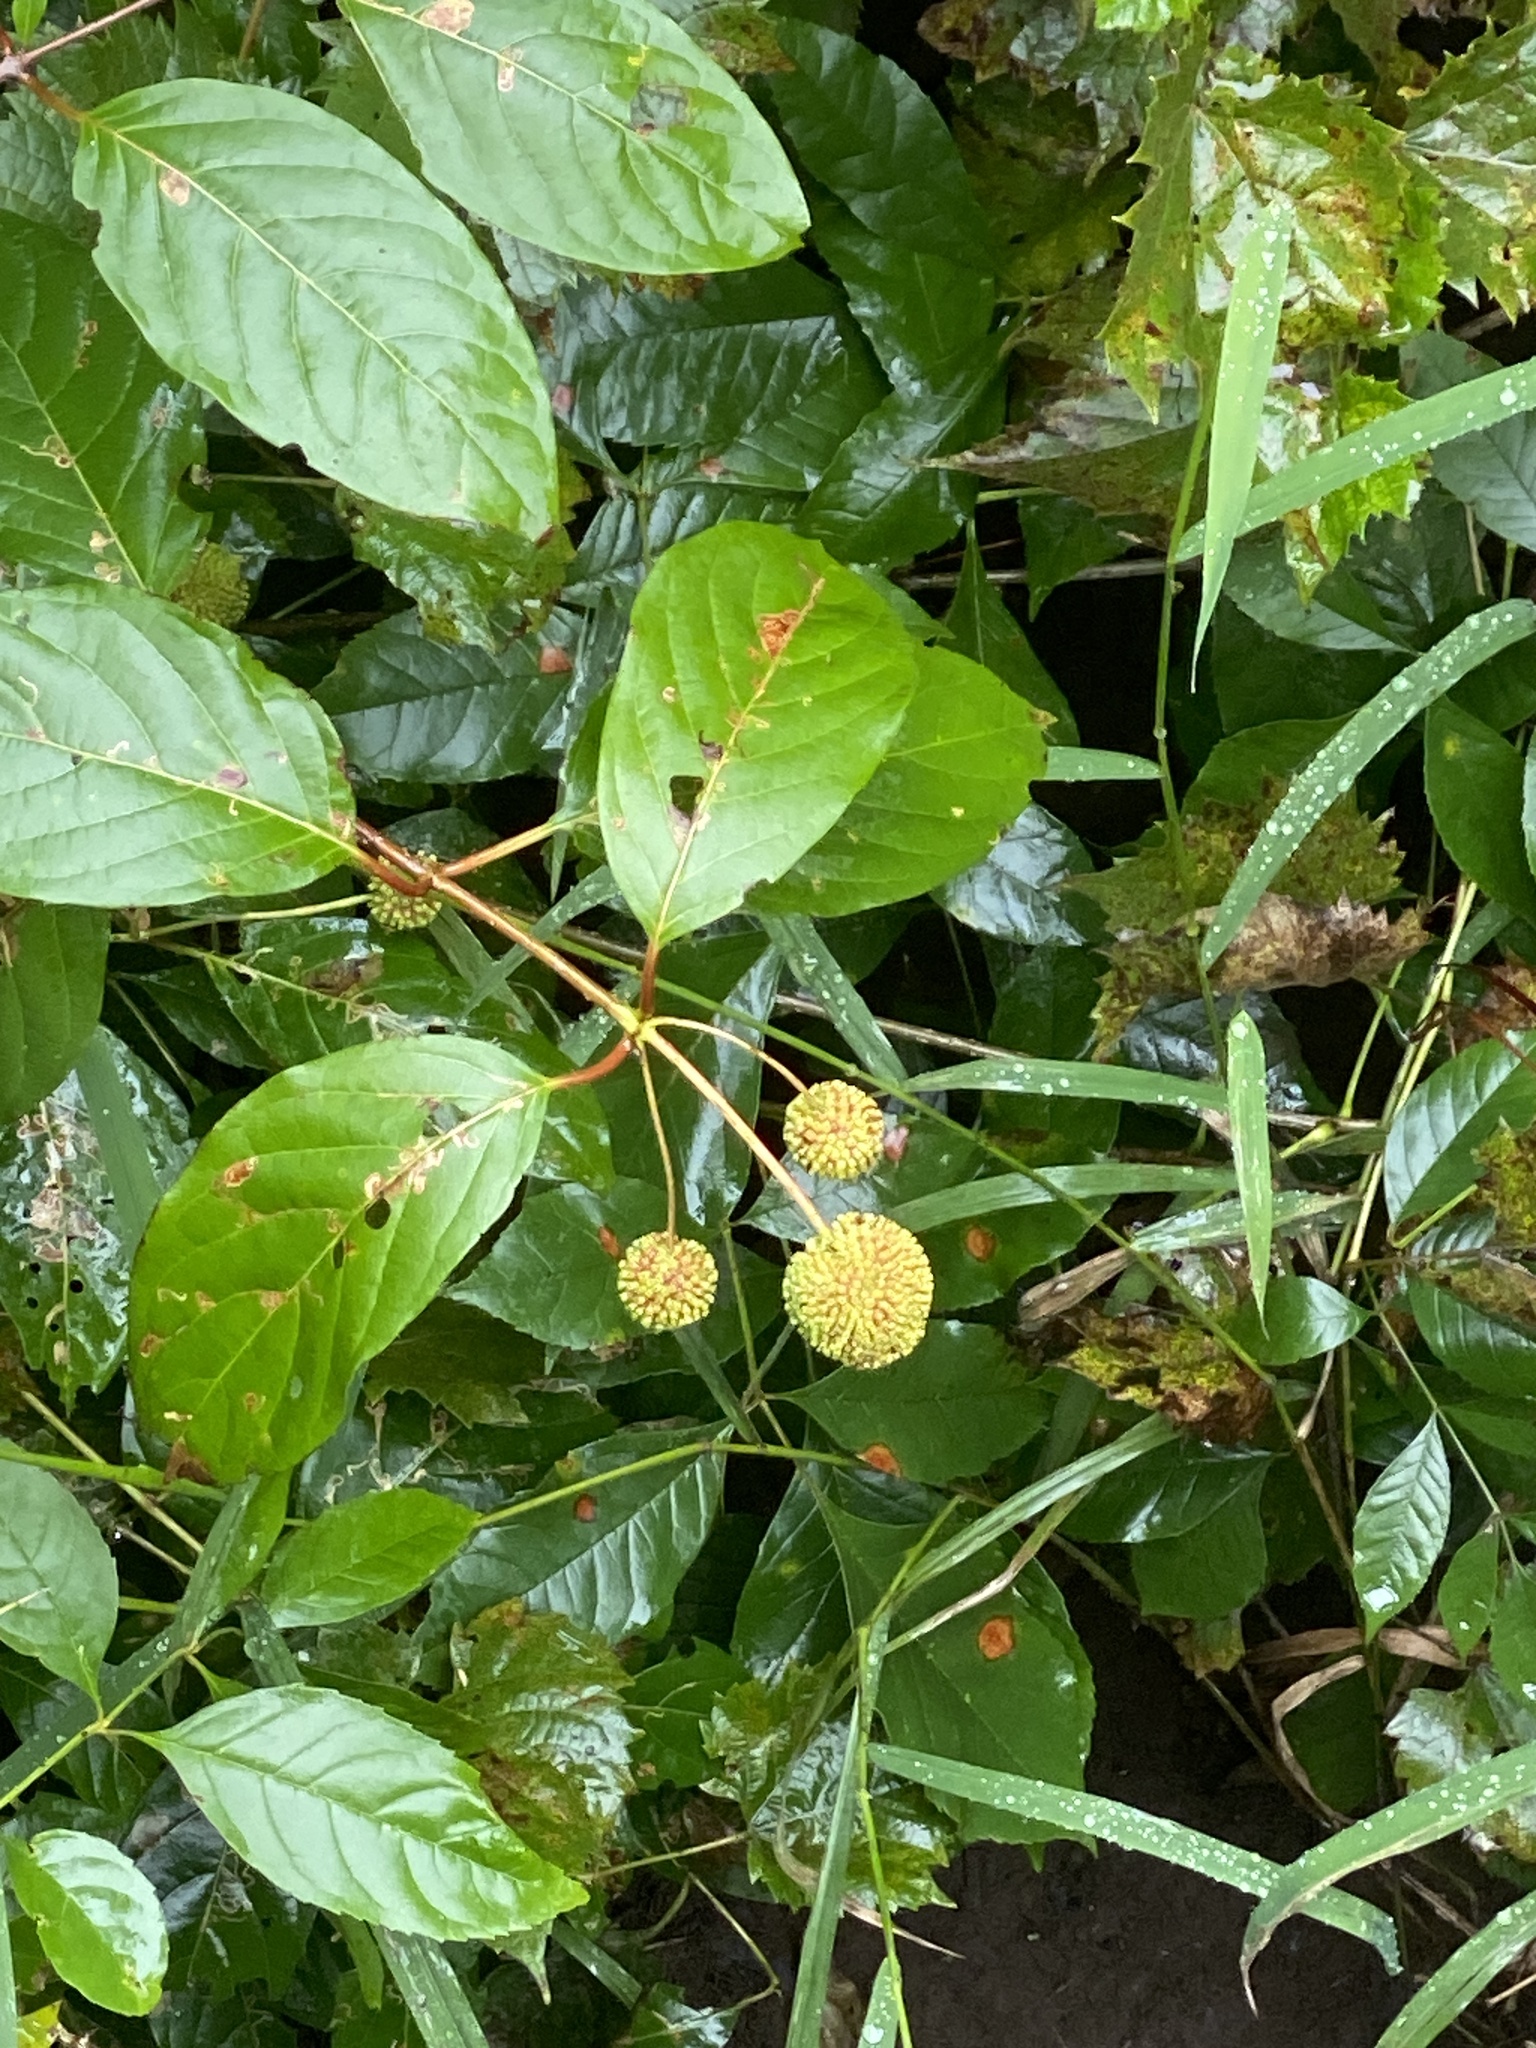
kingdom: Plantae
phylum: Tracheophyta
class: Magnoliopsida
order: Gentianales
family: Rubiaceae
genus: Cephalanthus
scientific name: Cephalanthus occidentalis
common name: Button-willow
